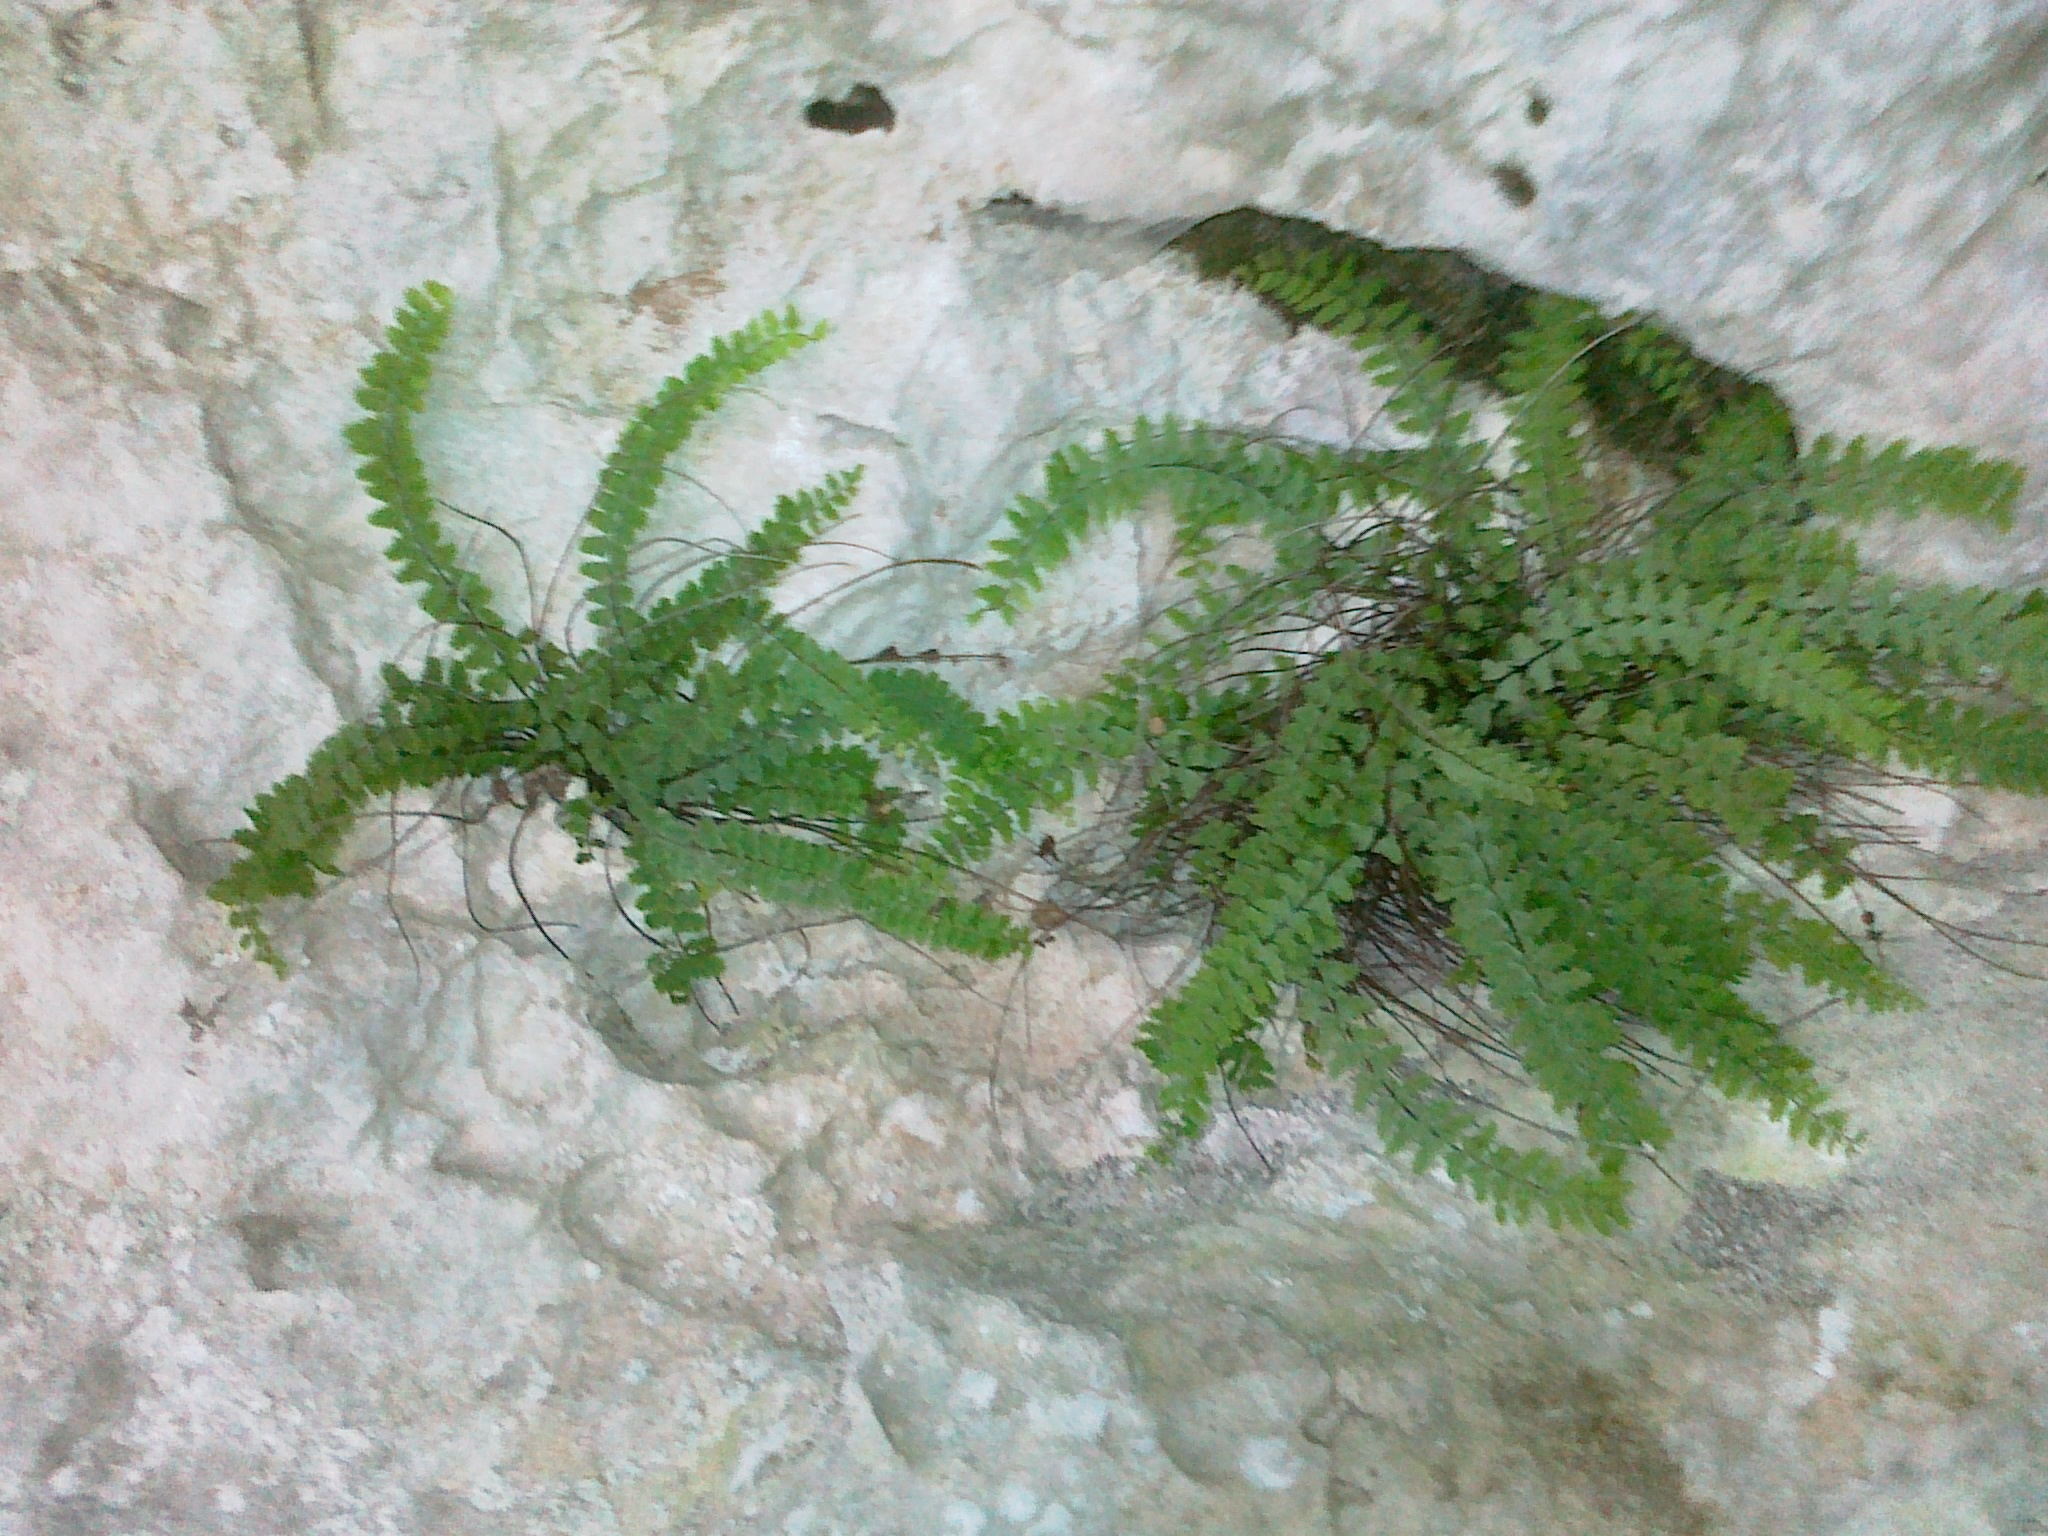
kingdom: Plantae
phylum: Tracheophyta
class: Polypodiopsida
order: Polypodiales
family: Aspleniaceae
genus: Asplenium
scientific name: Asplenium csikii
